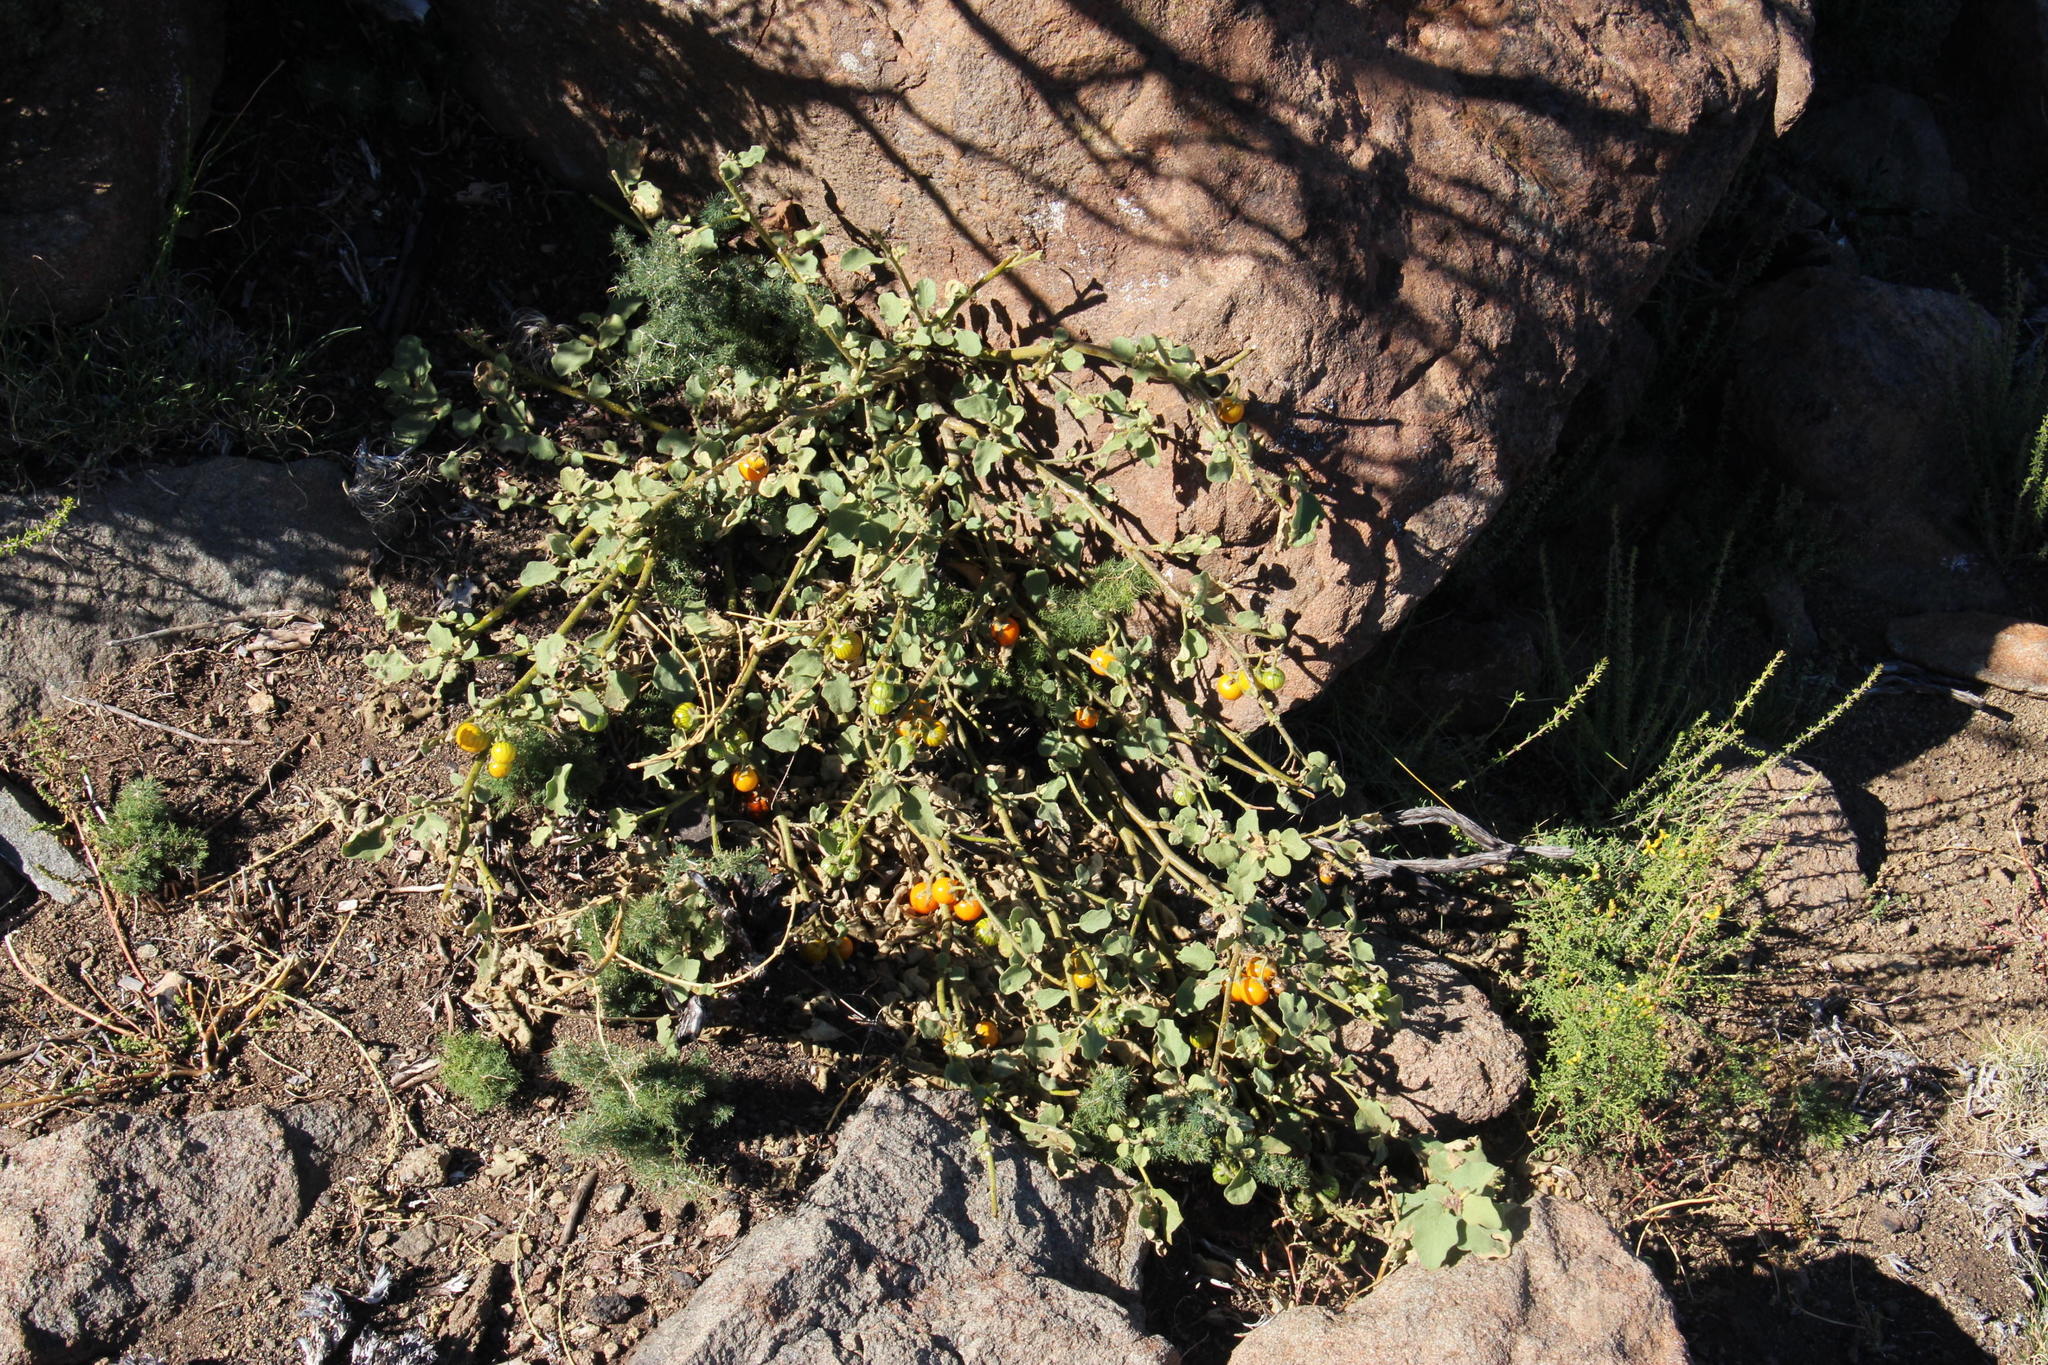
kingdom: Plantae
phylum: Tracheophyta
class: Magnoliopsida
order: Solanales
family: Solanaceae
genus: Solanum
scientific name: Solanum tomentosum
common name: Wild aubergine
